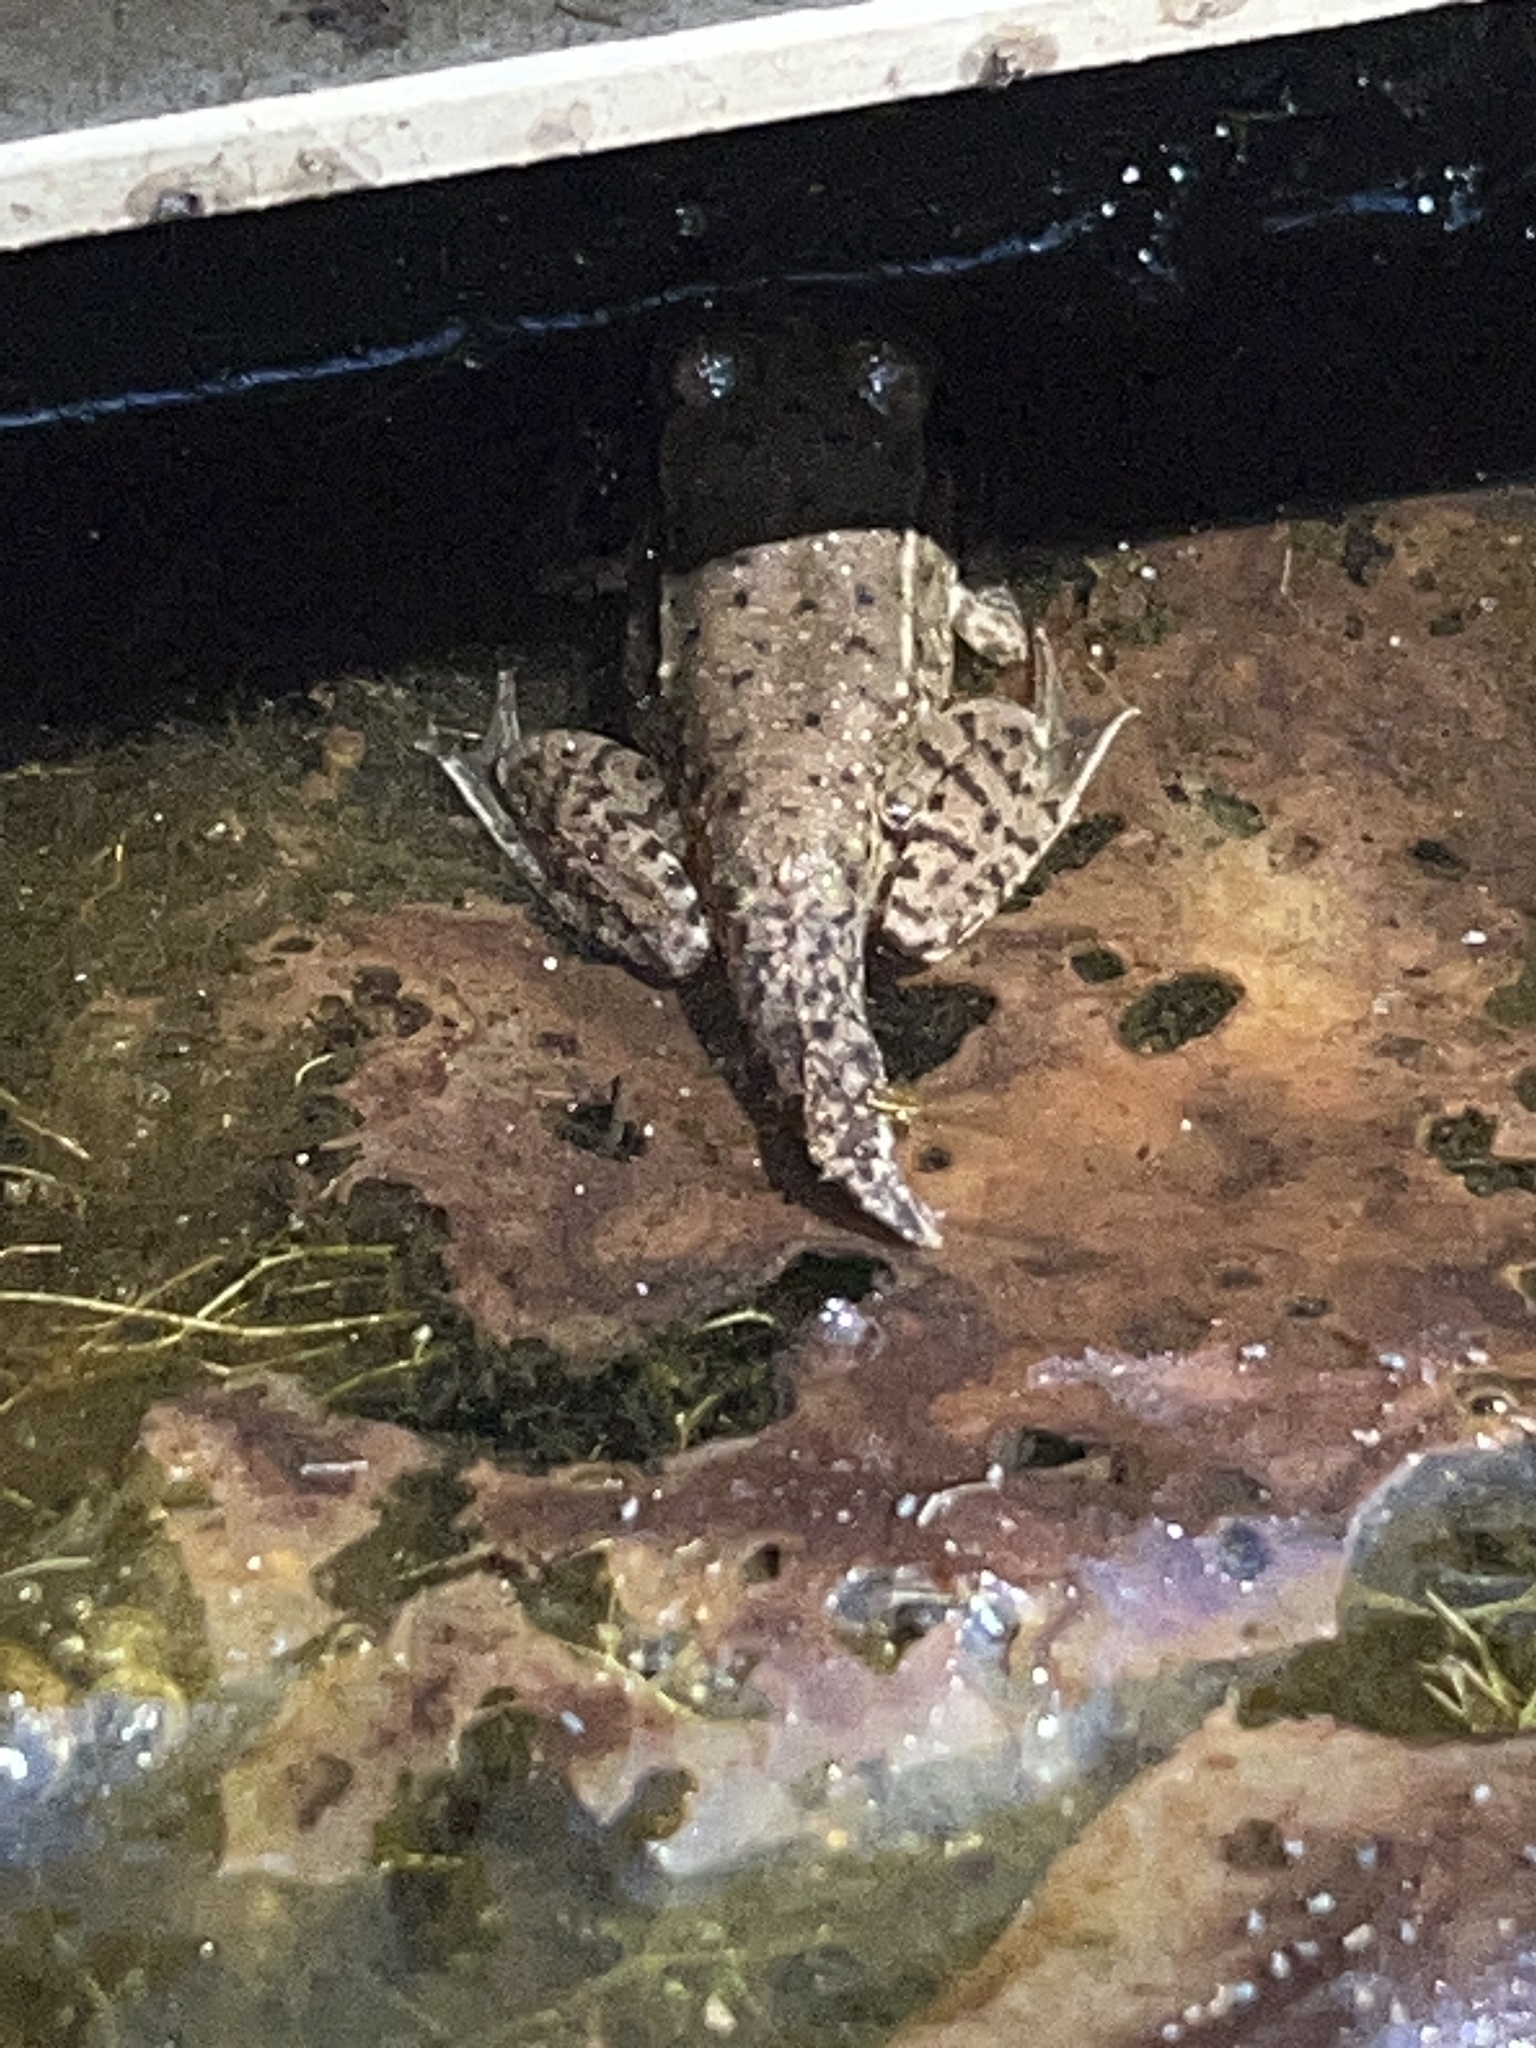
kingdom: Animalia
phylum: Chordata
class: Amphibia
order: Anura
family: Ranidae
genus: Lithobates
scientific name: Lithobates clamitans
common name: Green frog
